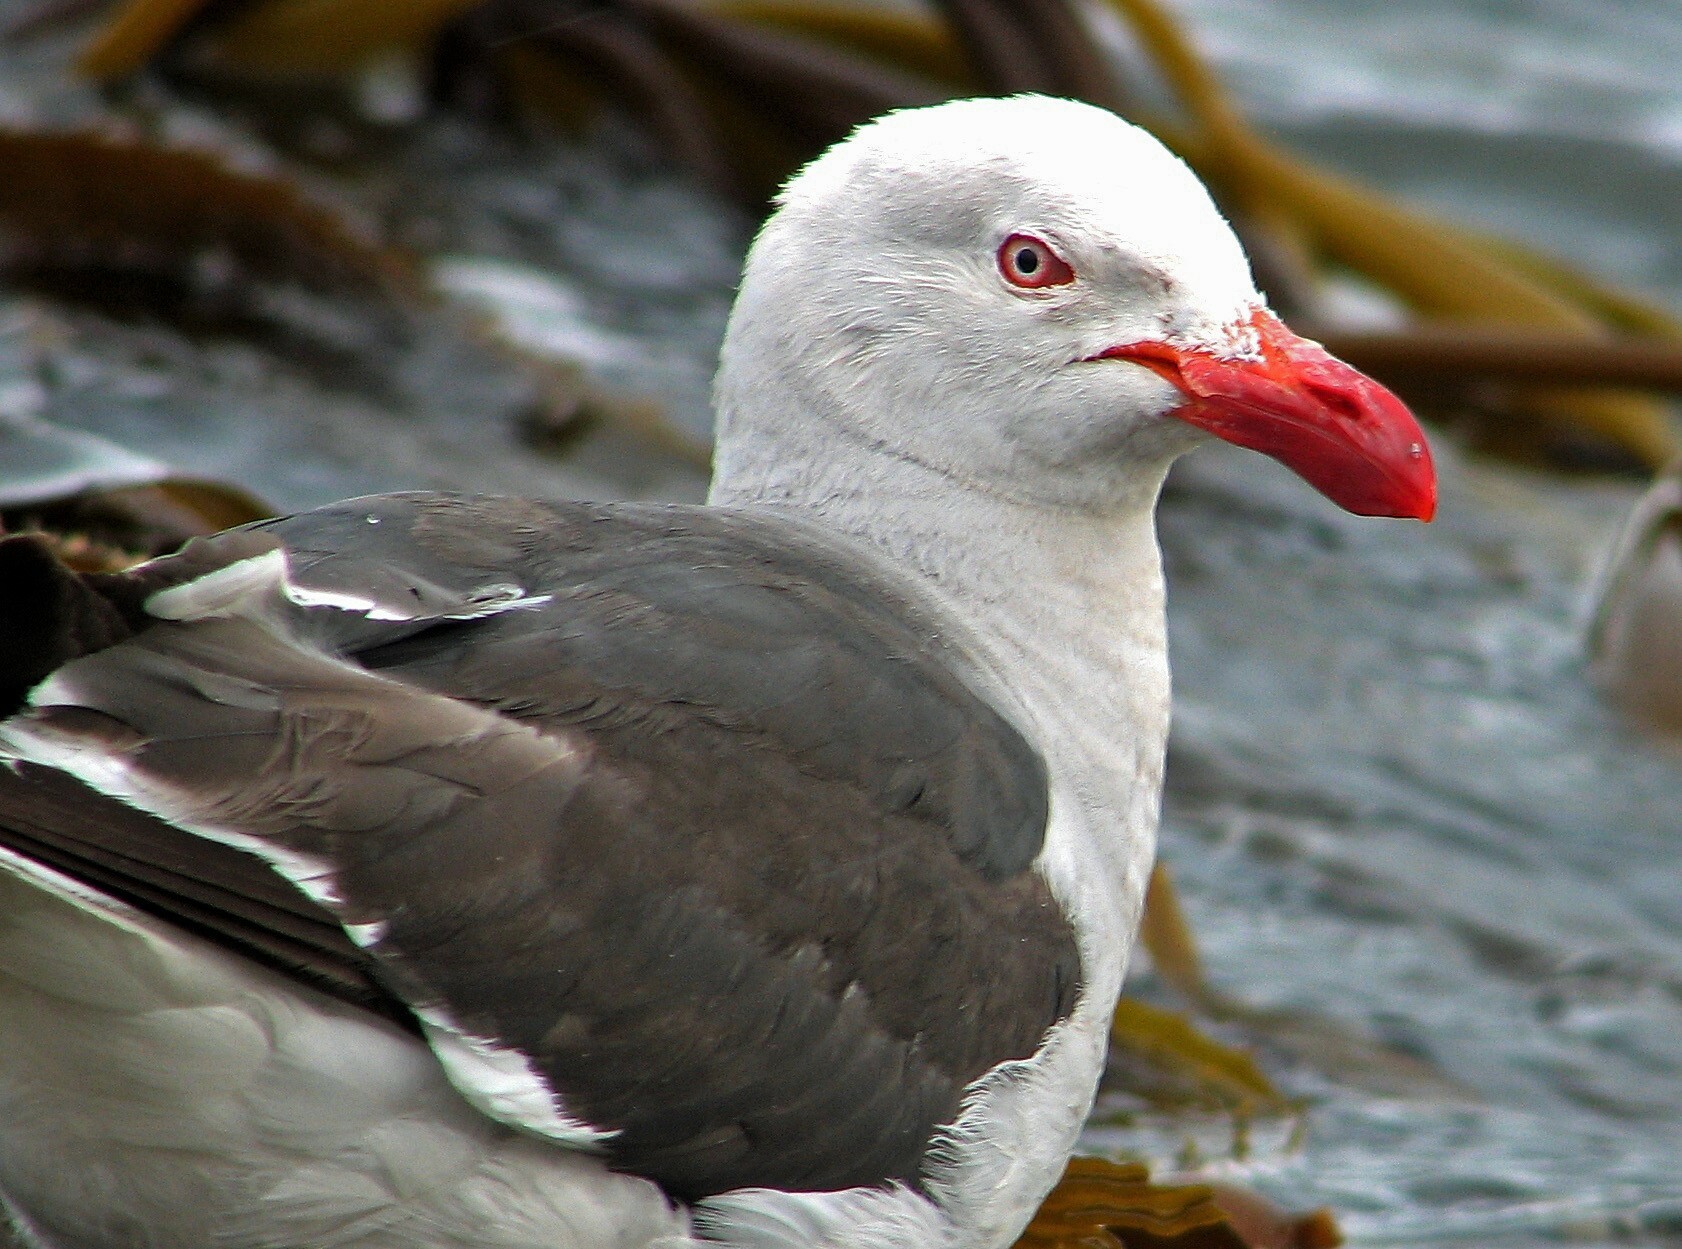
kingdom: Animalia
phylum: Chordata
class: Aves
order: Charadriiformes
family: Laridae
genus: Leucophaeus
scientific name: Leucophaeus scoresbii
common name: Dolphin gull
